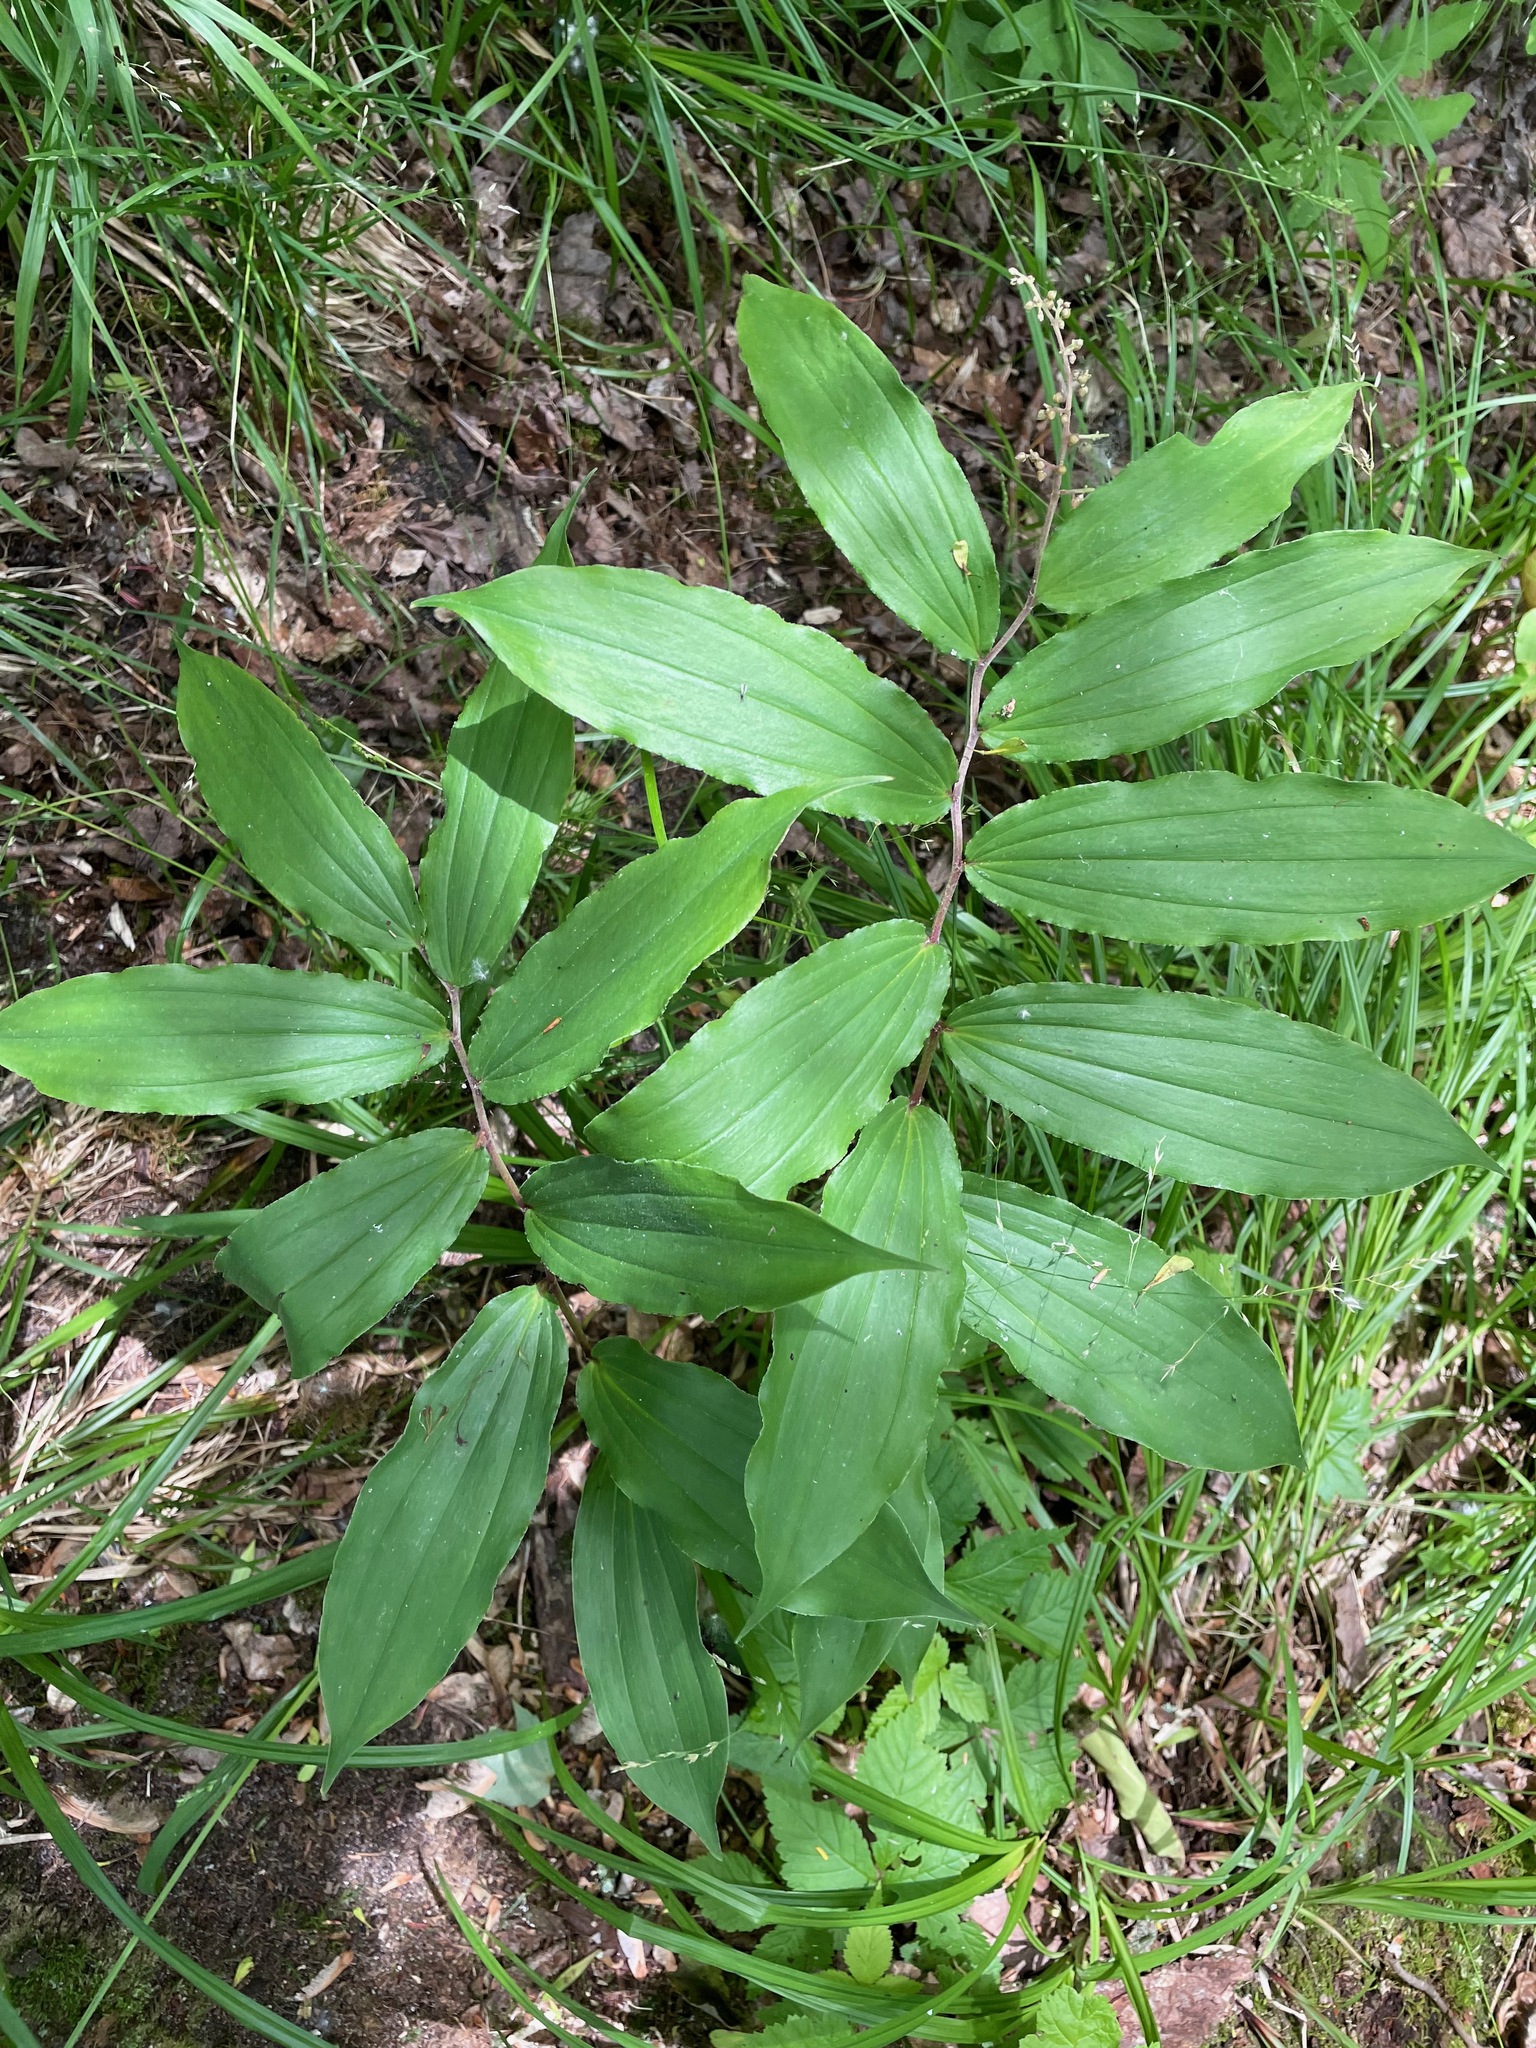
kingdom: Plantae
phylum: Tracheophyta
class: Liliopsida
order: Asparagales
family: Asparagaceae
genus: Maianthemum
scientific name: Maianthemum racemosum
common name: False spikenard
